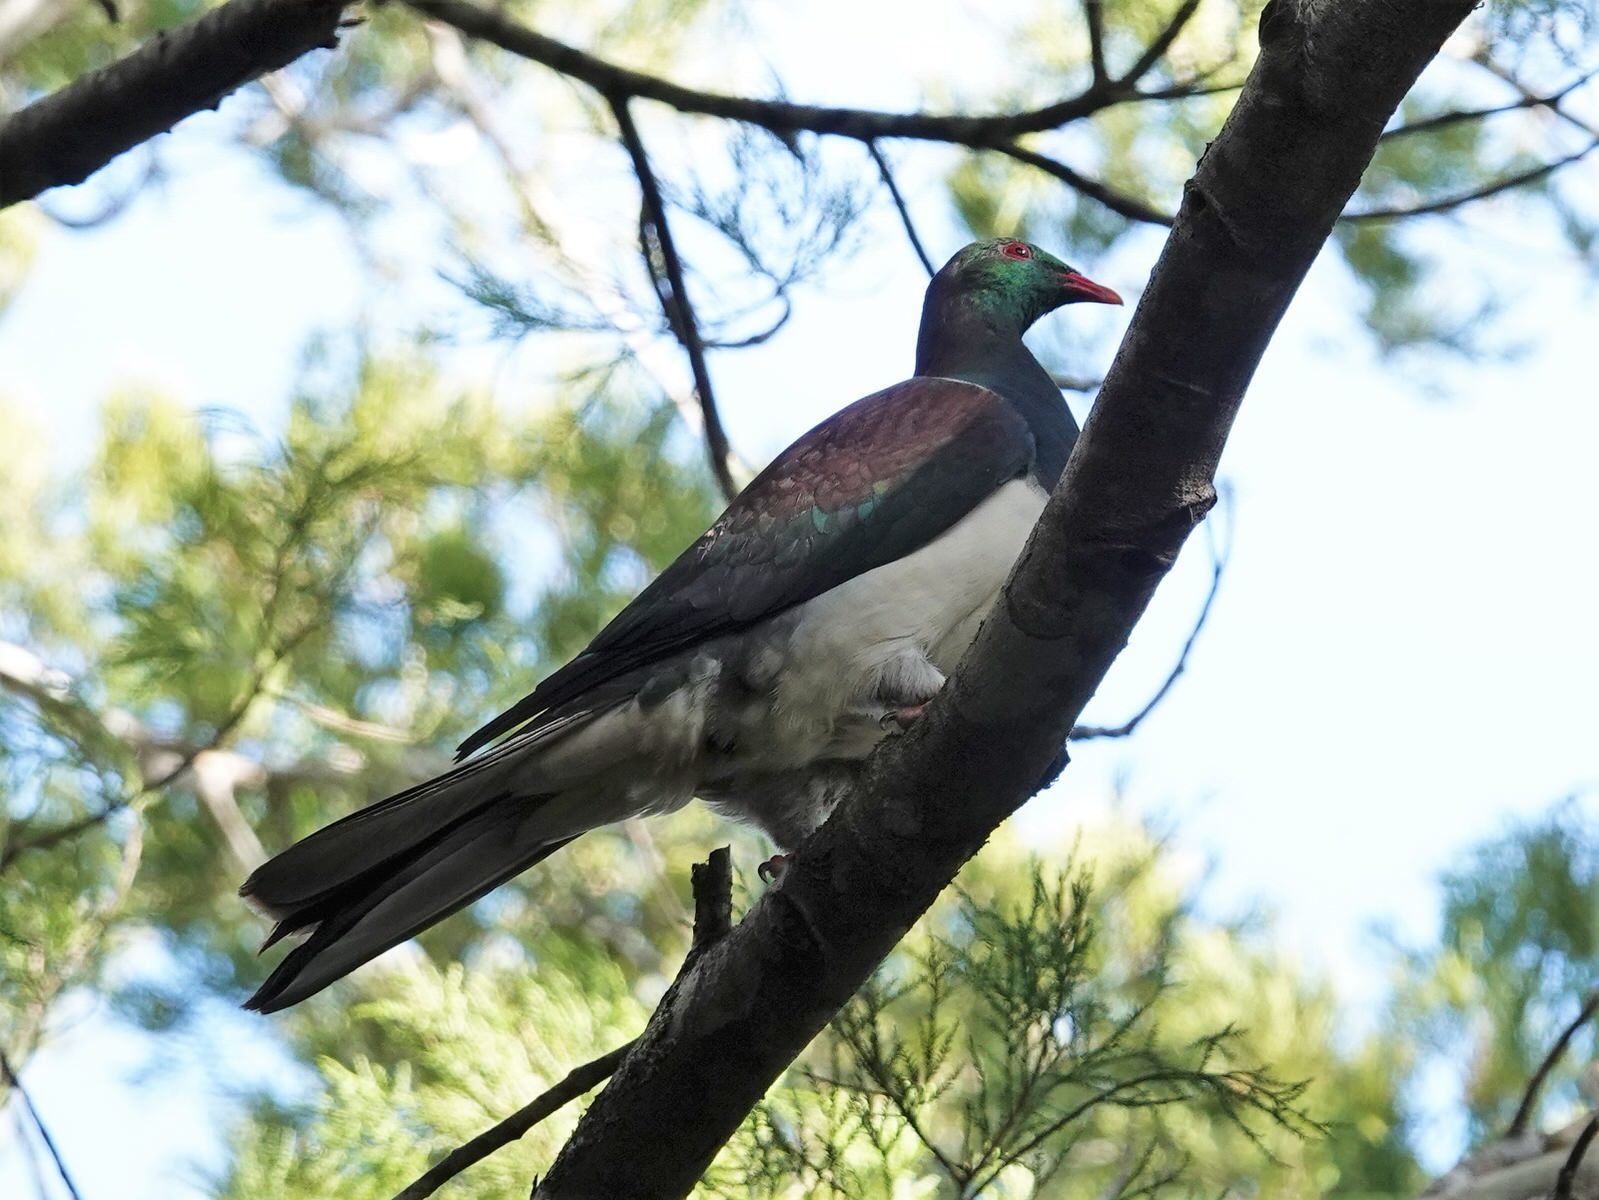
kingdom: Animalia
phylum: Chordata
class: Aves
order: Columbiformes
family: Columbidae
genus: Hemiphaga
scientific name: Hemiphaga novaeseelandiae
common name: New zealand pigeon
